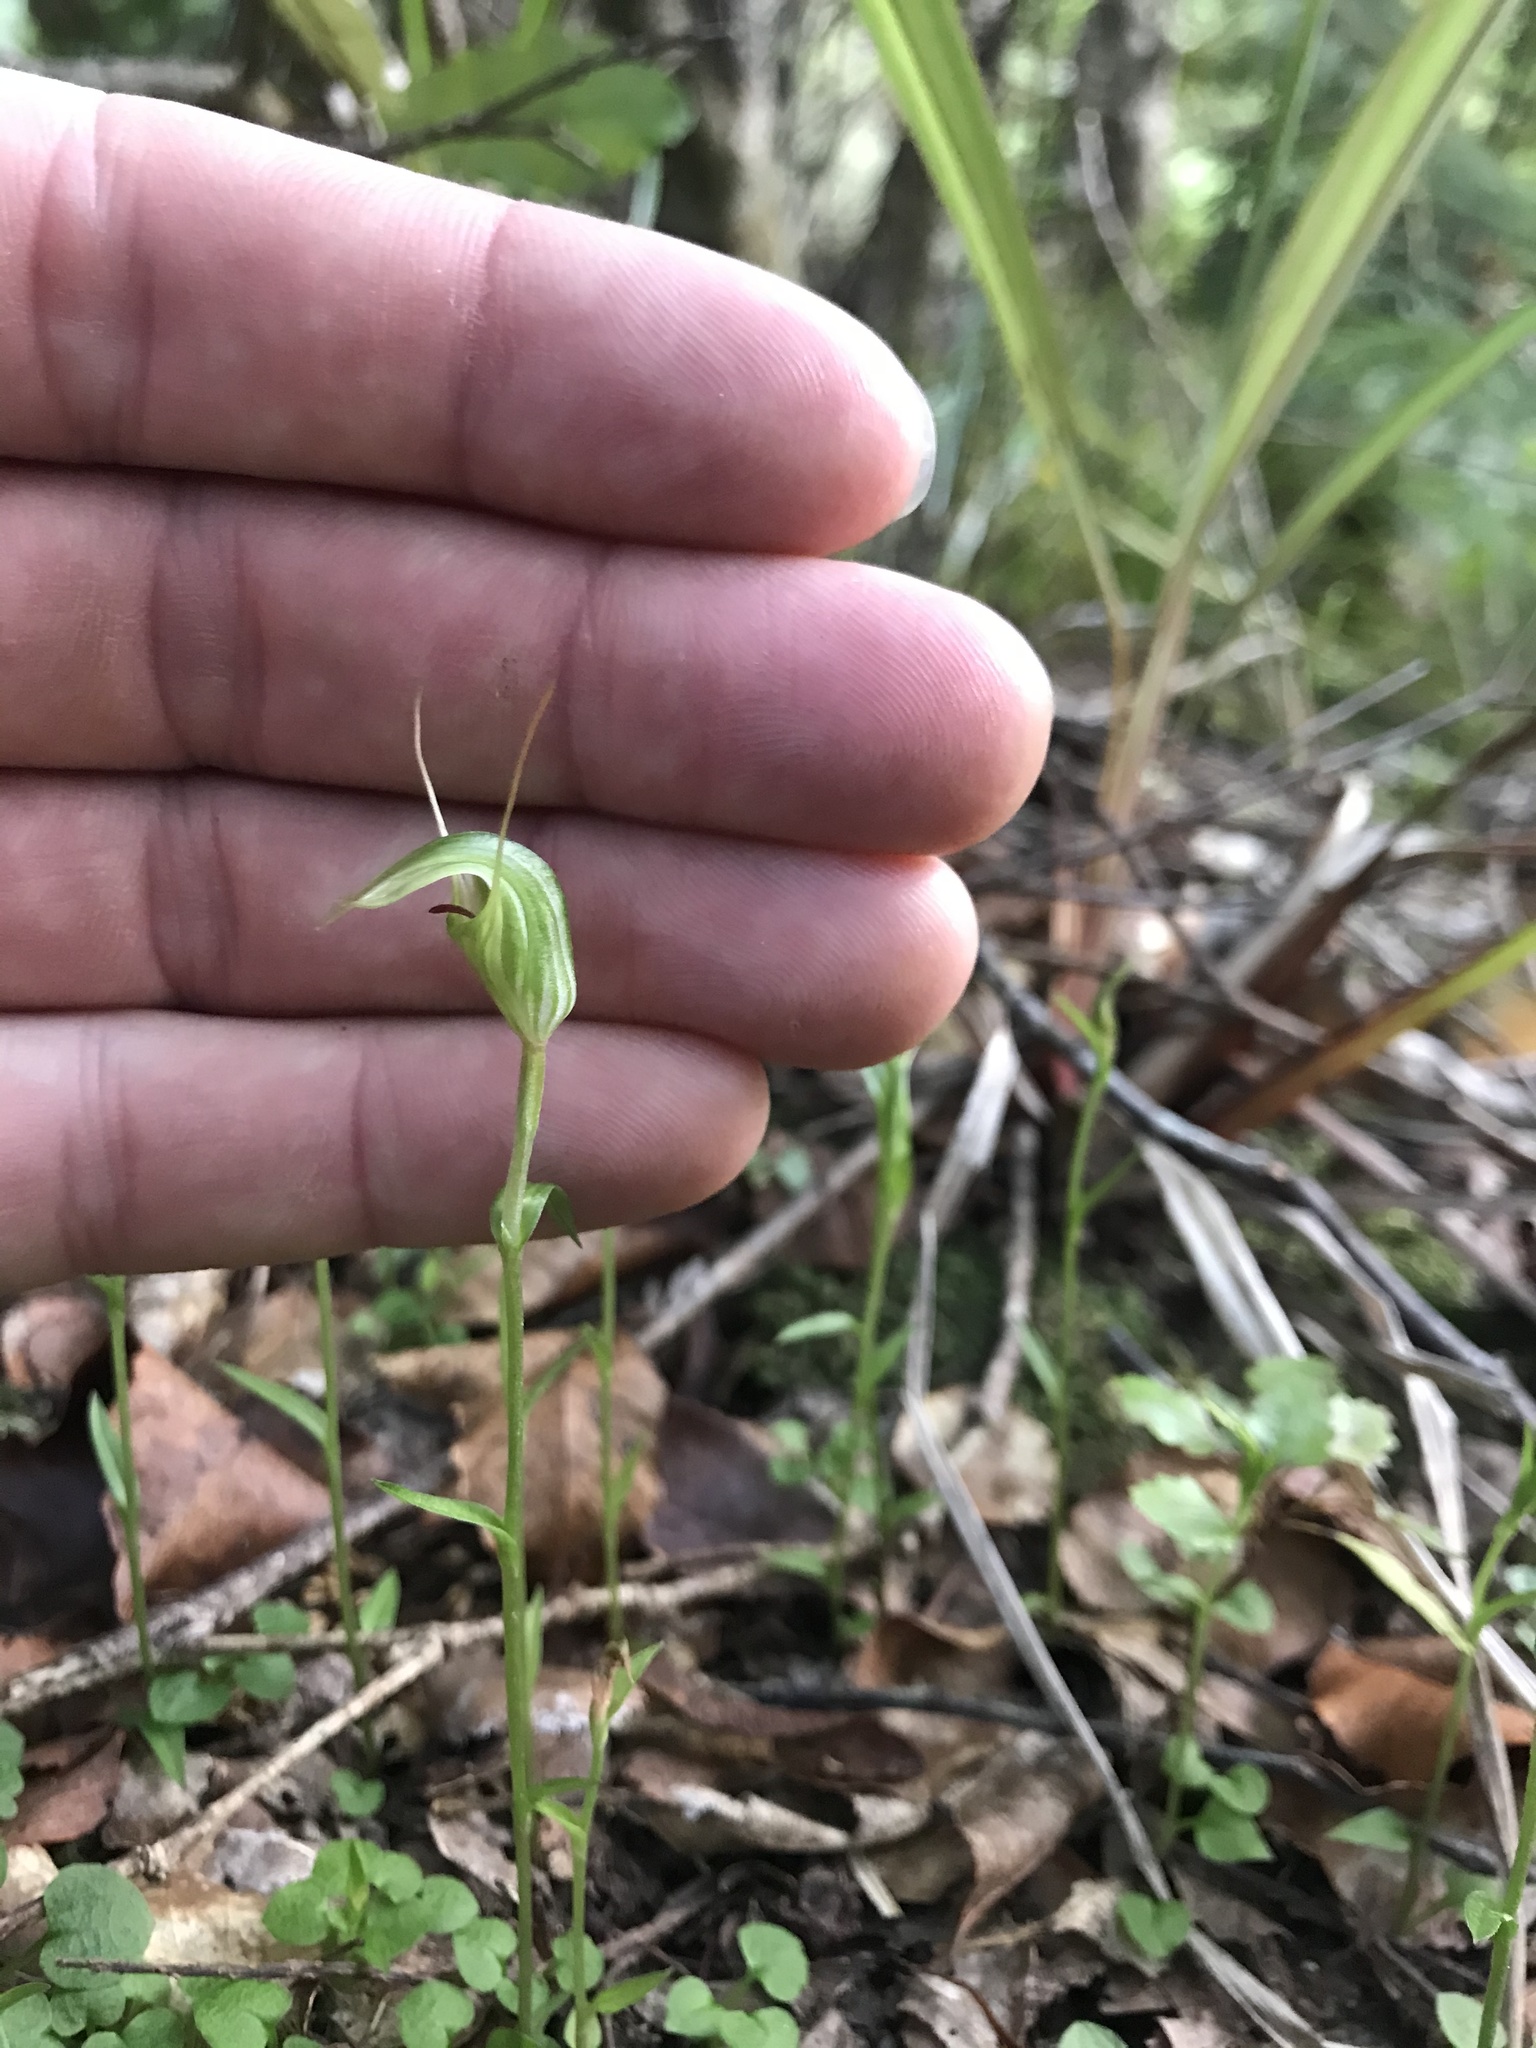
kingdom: Plantae
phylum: Tracheophyta
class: Liliopsida
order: Asparagales
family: Orchidaceae
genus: Pterostylis
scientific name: Pterostylis alobula
